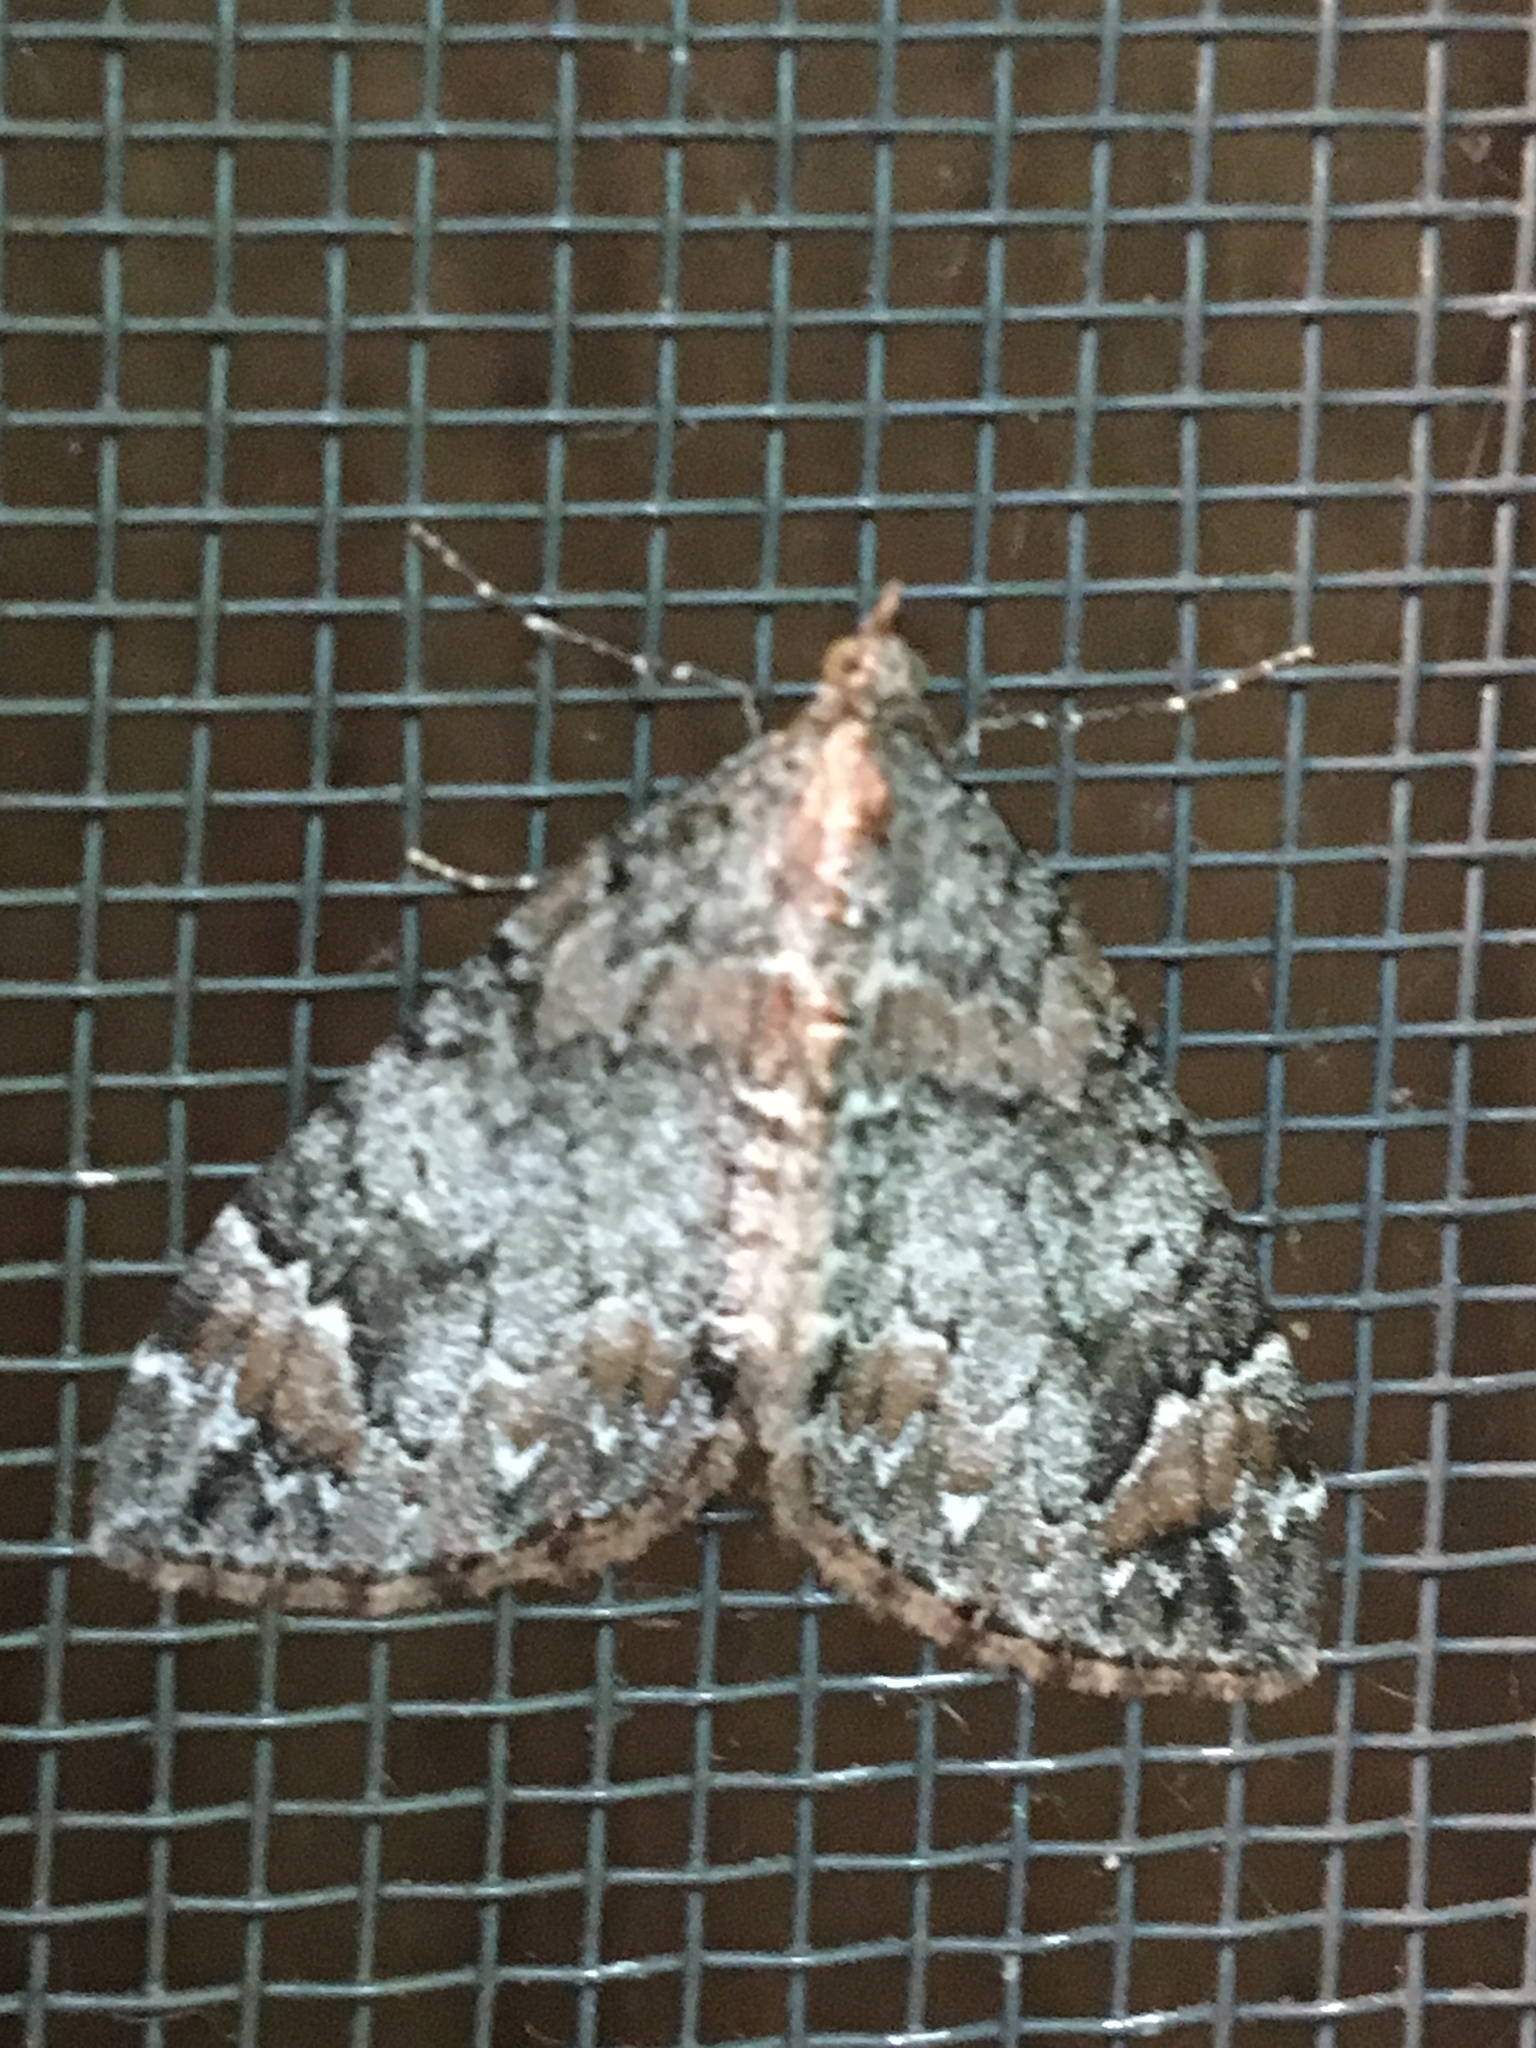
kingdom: Animalia
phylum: Arthropoda
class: Insecta
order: Lepidoptera
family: Geometridae
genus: Dysstroma
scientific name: Dysstroma citrata
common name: Dark marbled carpet
